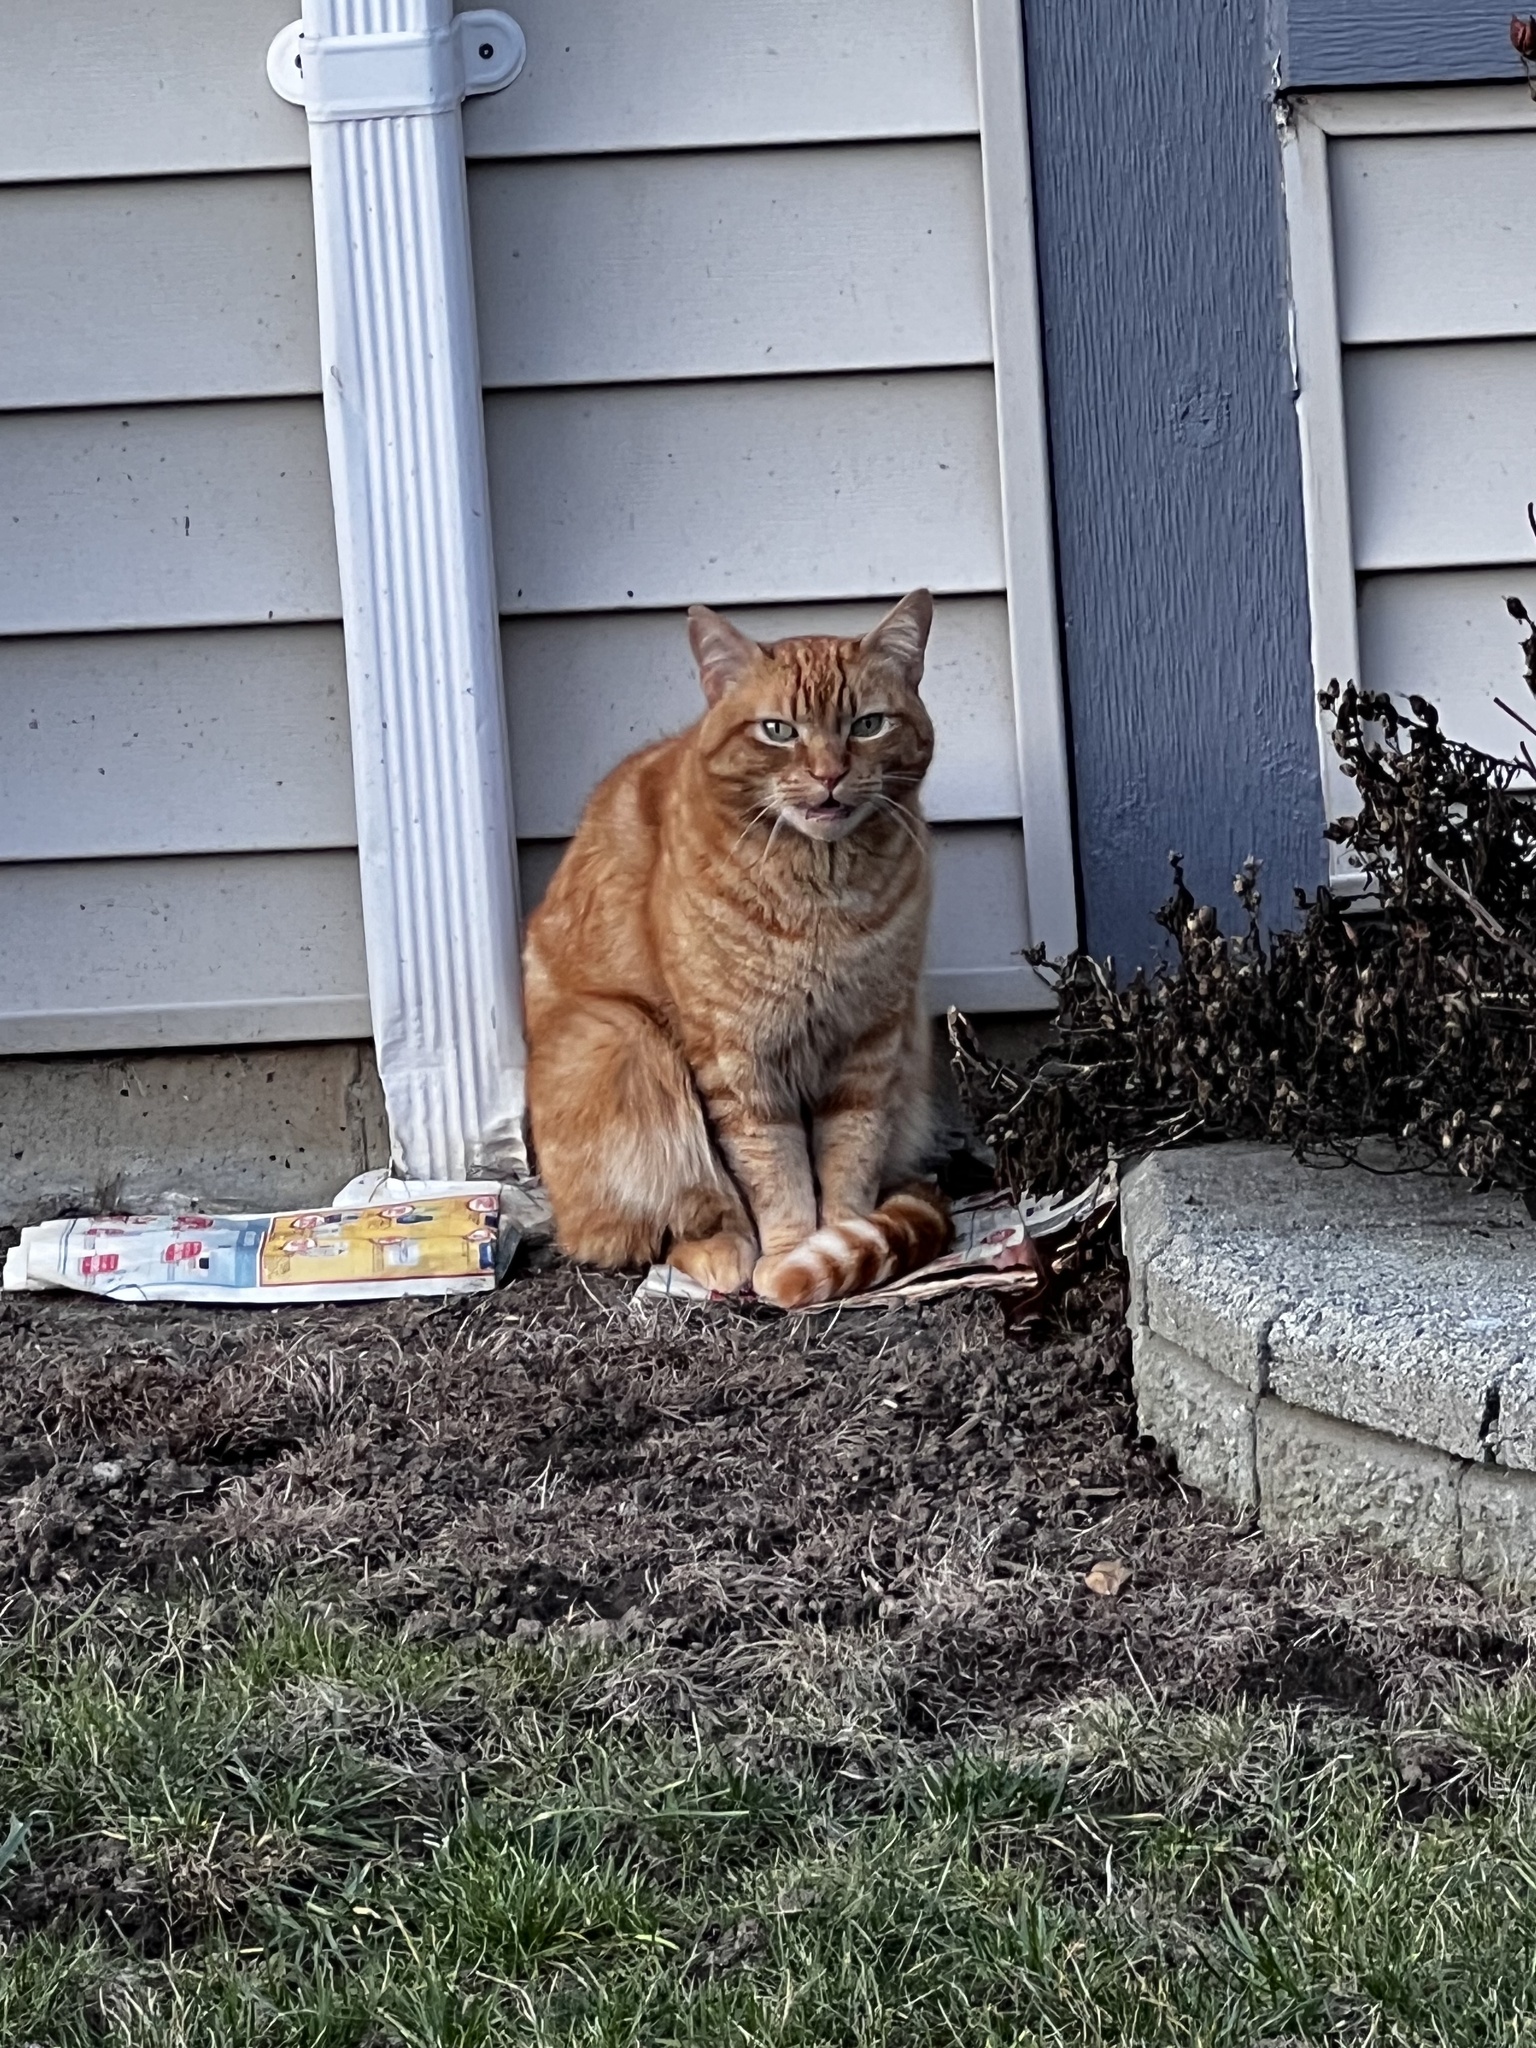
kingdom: Animalia
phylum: Chordata
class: Mammalia
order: Carnivora
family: Felidae
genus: Felis
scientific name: Felis catus
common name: Domestic cat
